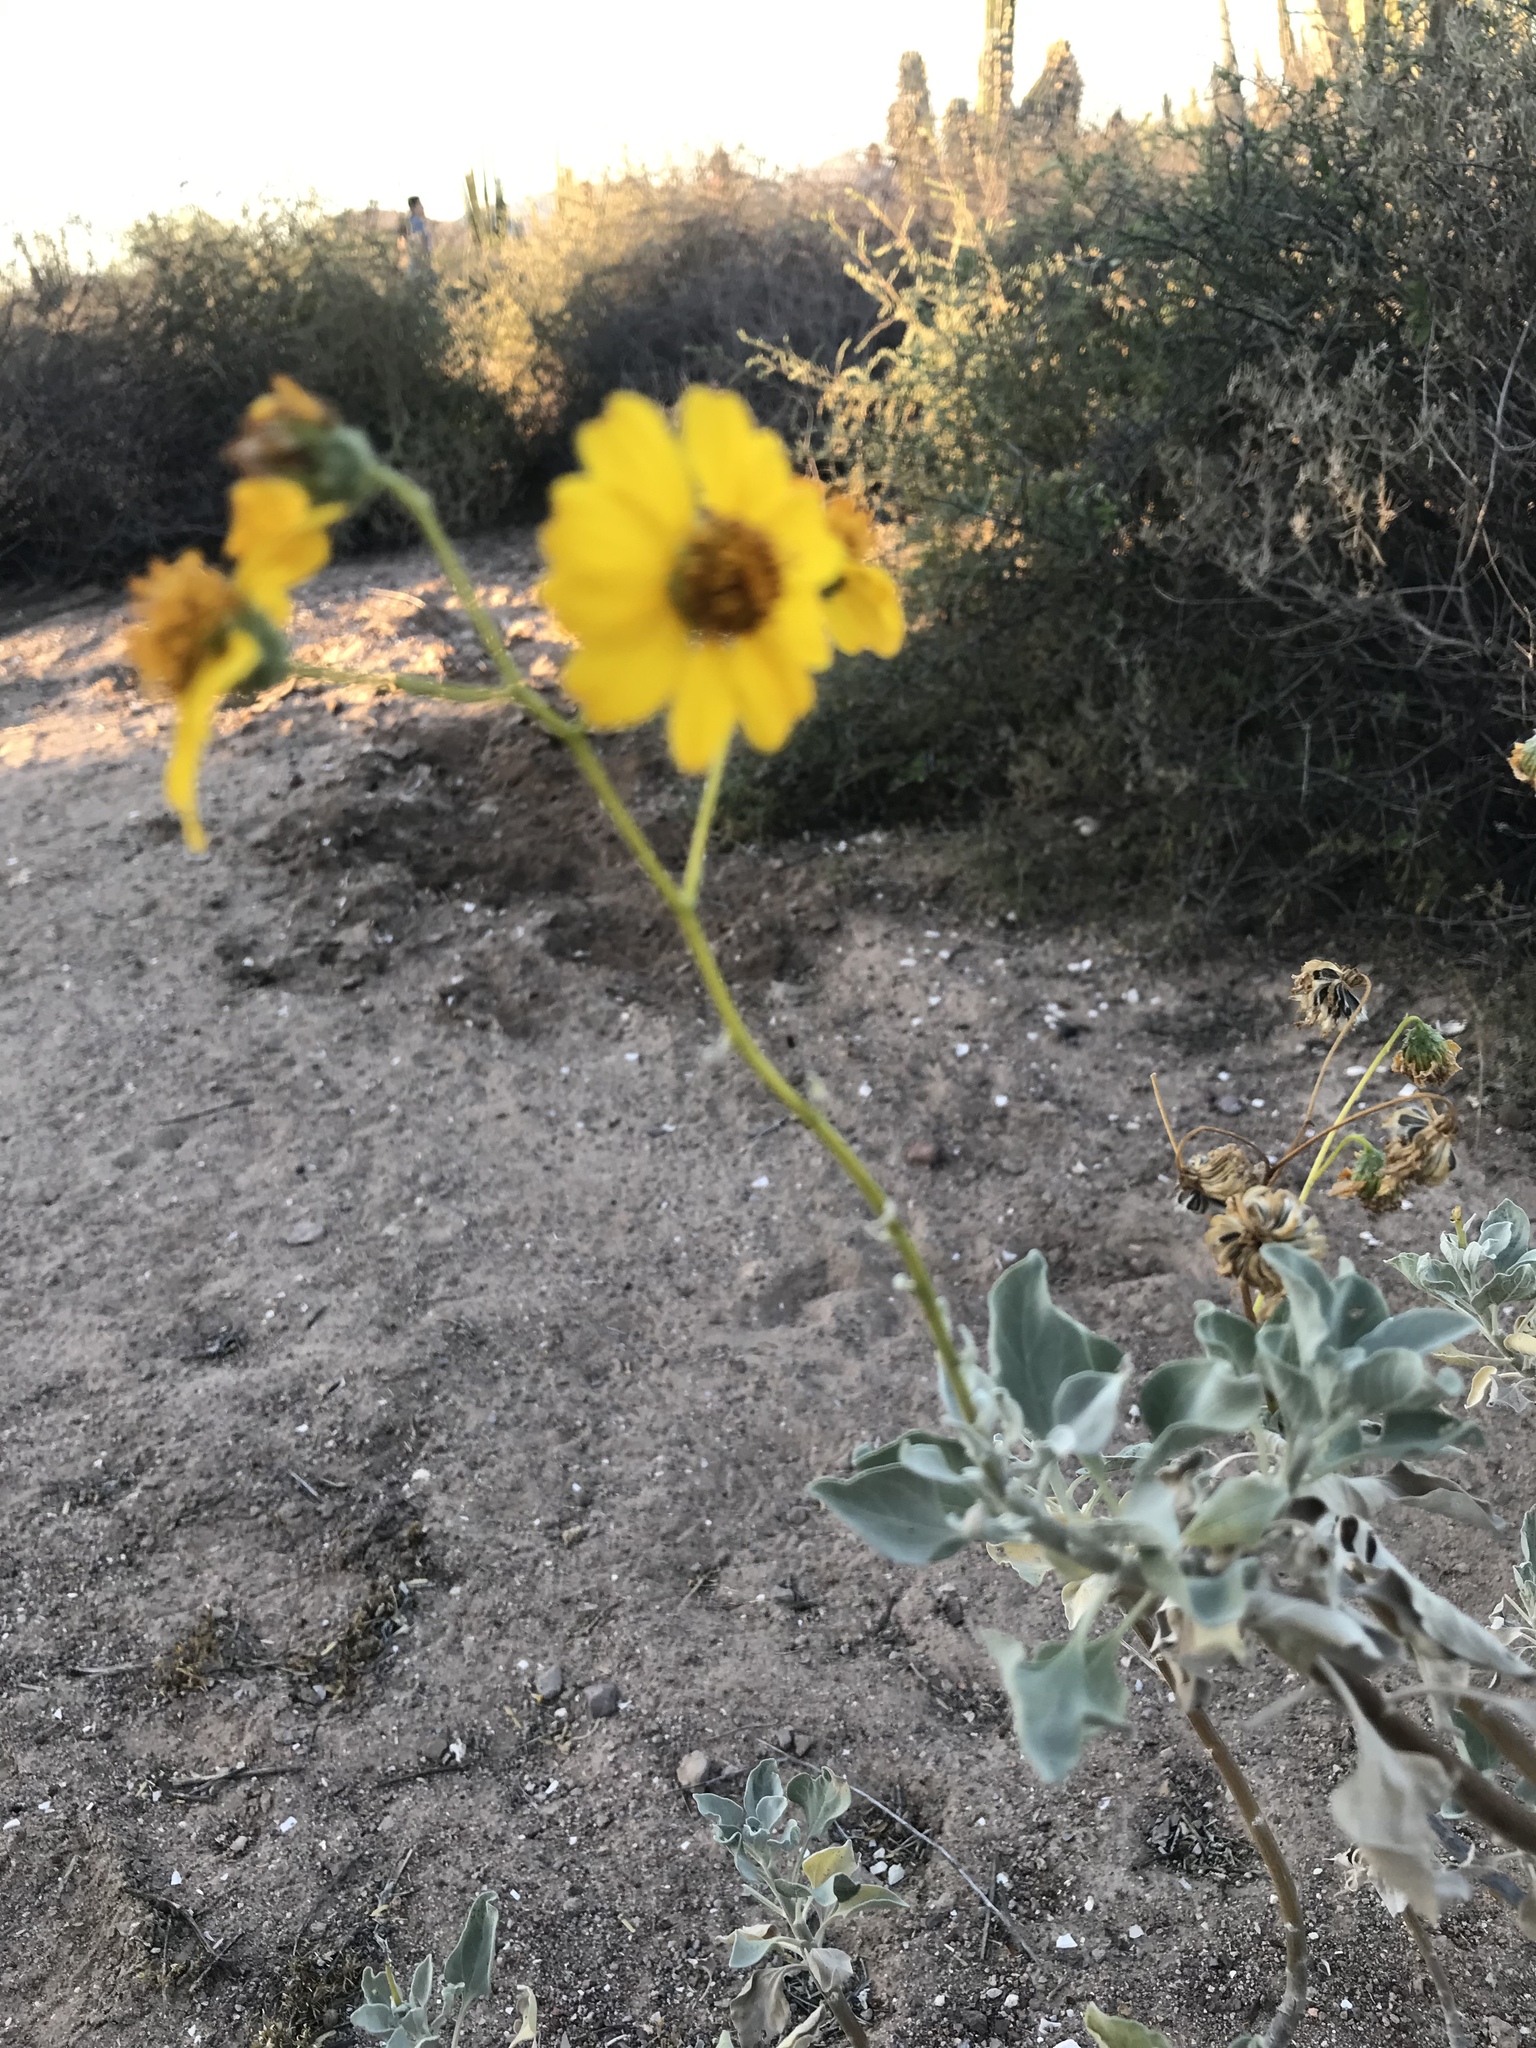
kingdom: Plantae
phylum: Tracheophyta
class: Magnoliopsida
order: Asterales
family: Asteraceae
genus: Encelia
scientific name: Encelia farinosa
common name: Brittlebush
